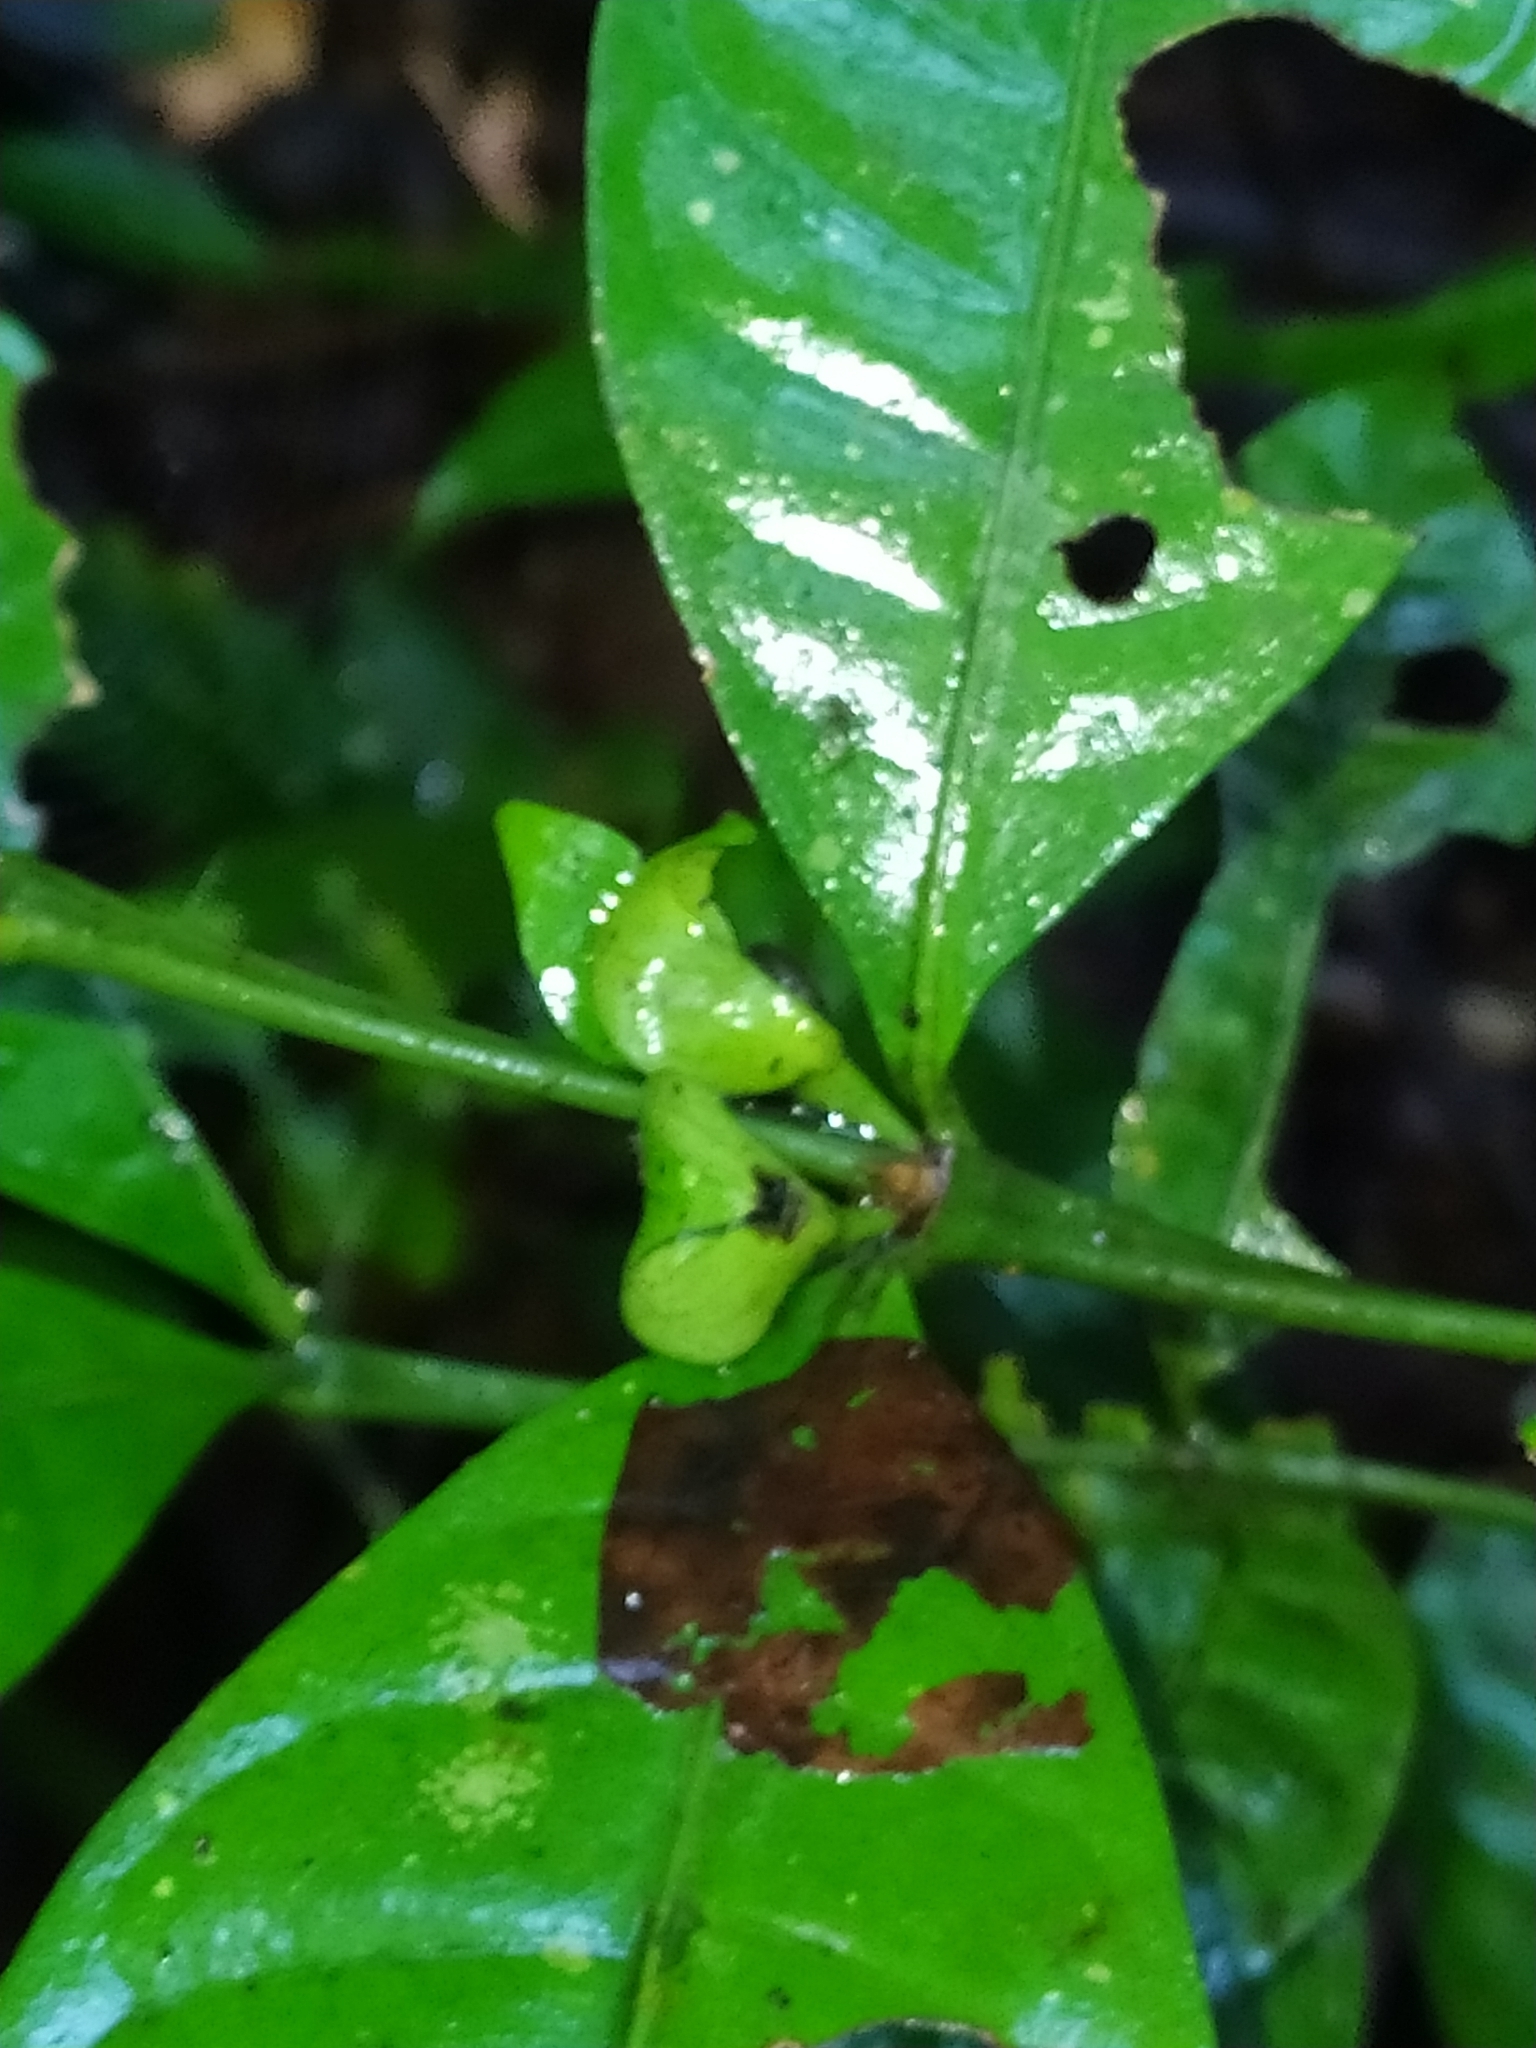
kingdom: Plantae
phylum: Tracheophyta
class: Magnoliopsida
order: Gentianales
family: Rubiaceae
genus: Faramea
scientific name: Faramea guianensis
